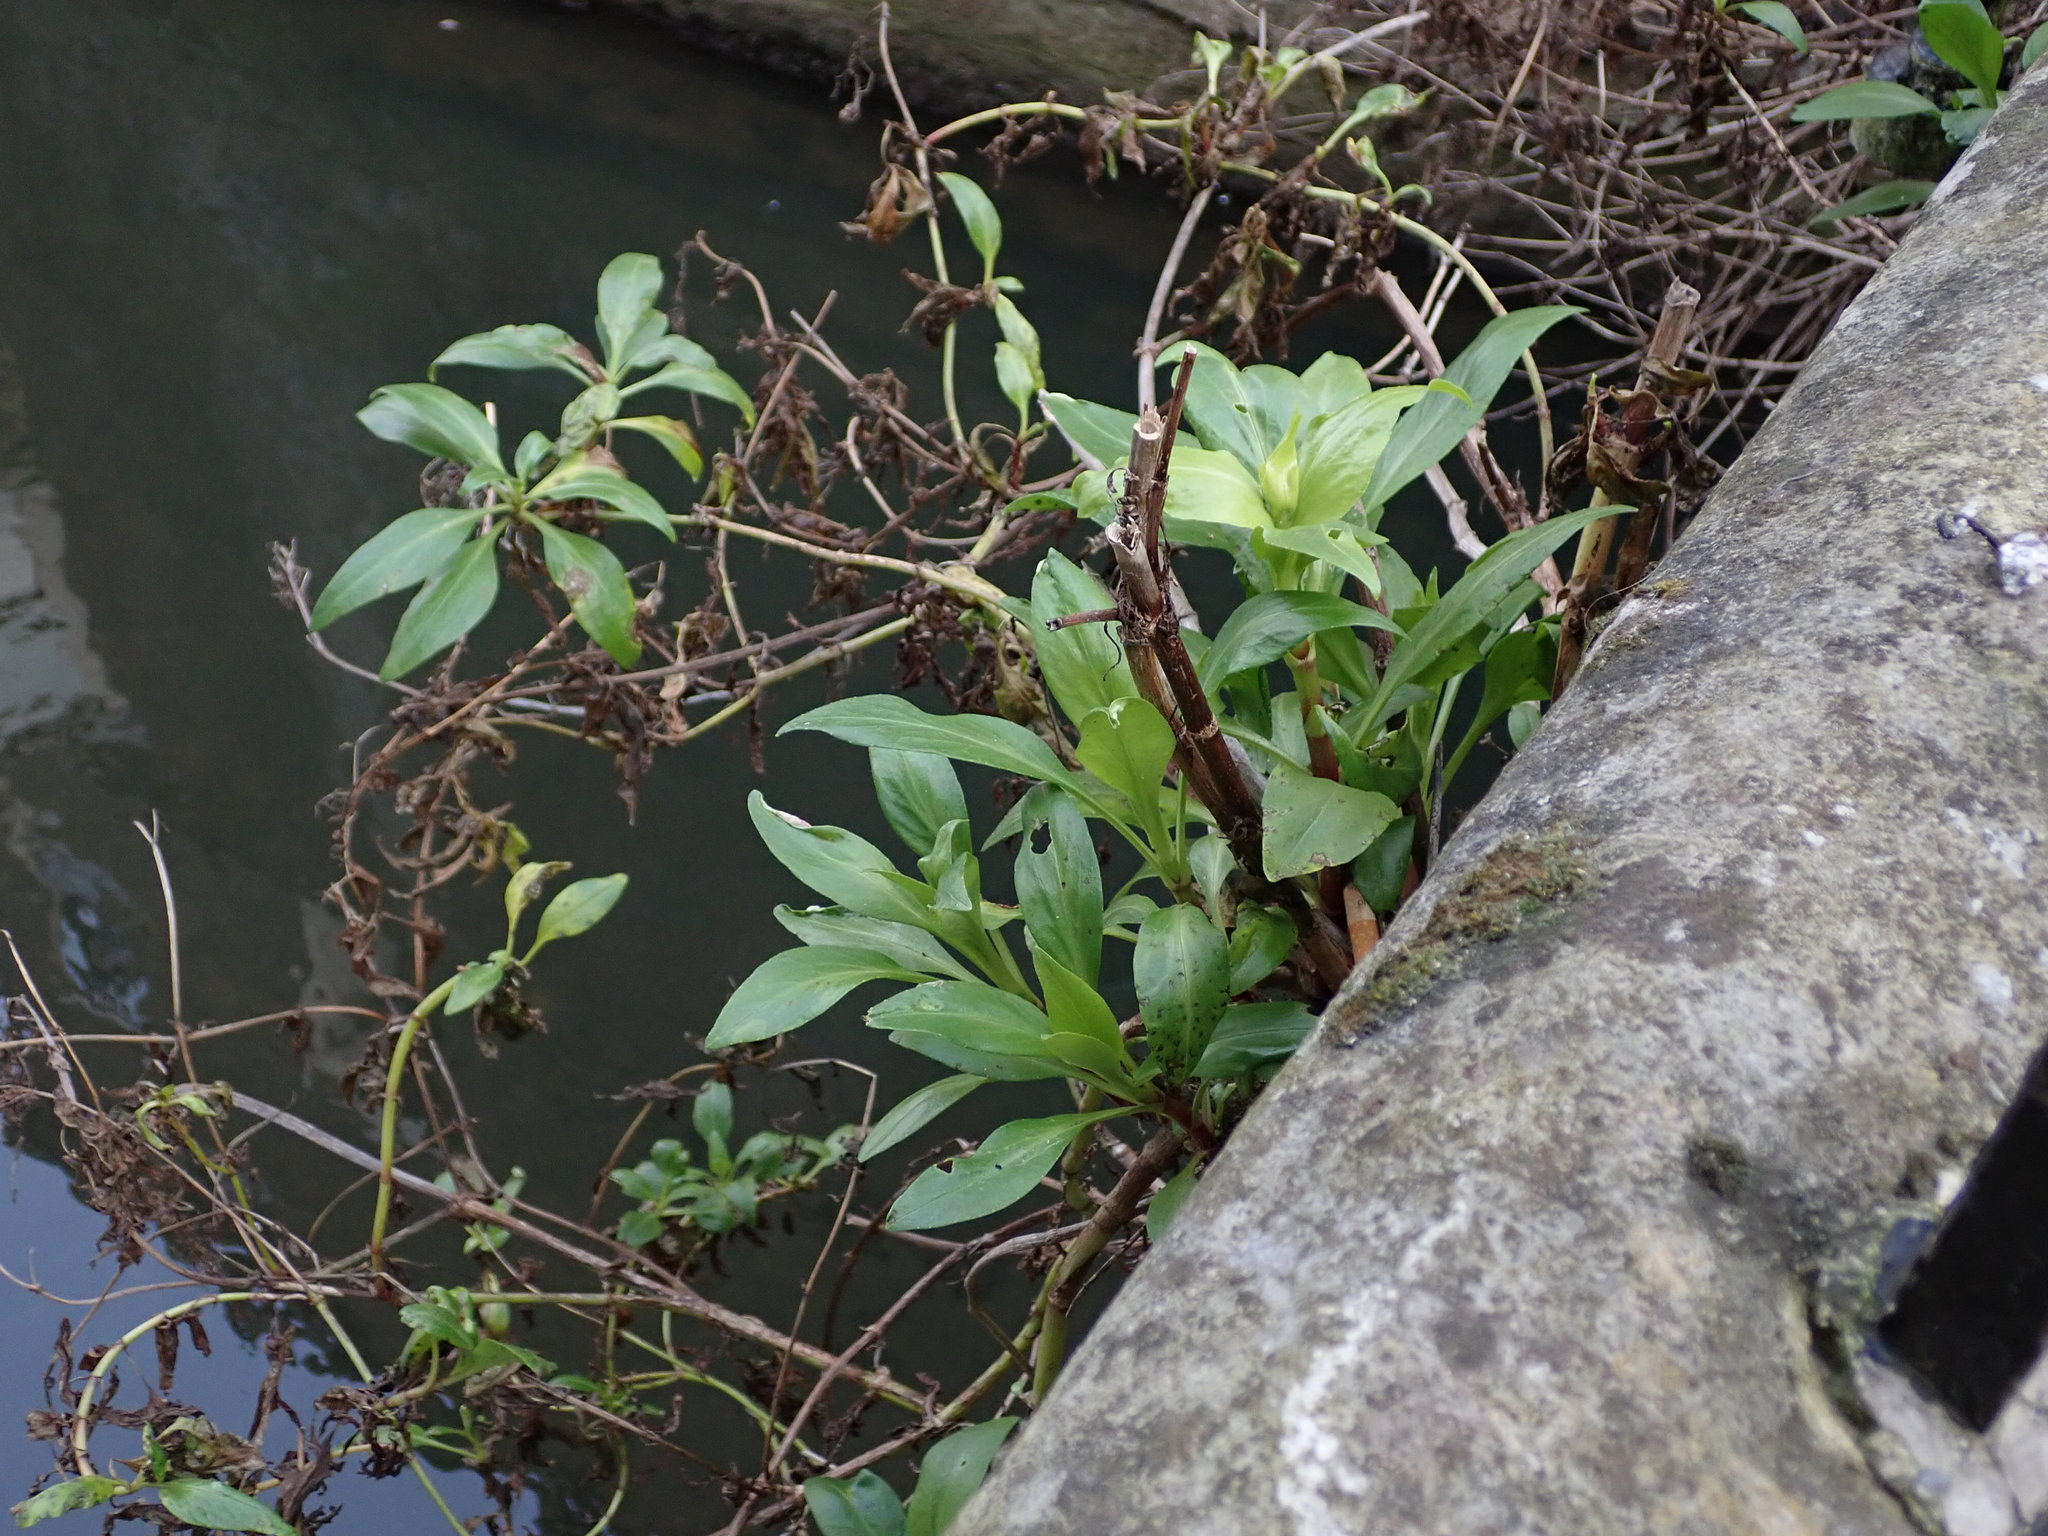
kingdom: Plantae
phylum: Tracheophyta
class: Magnoliopsida
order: Dipsacales
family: Caprifoliaceae
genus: Centranthus
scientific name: Centranthus ruber
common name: Red valerian
